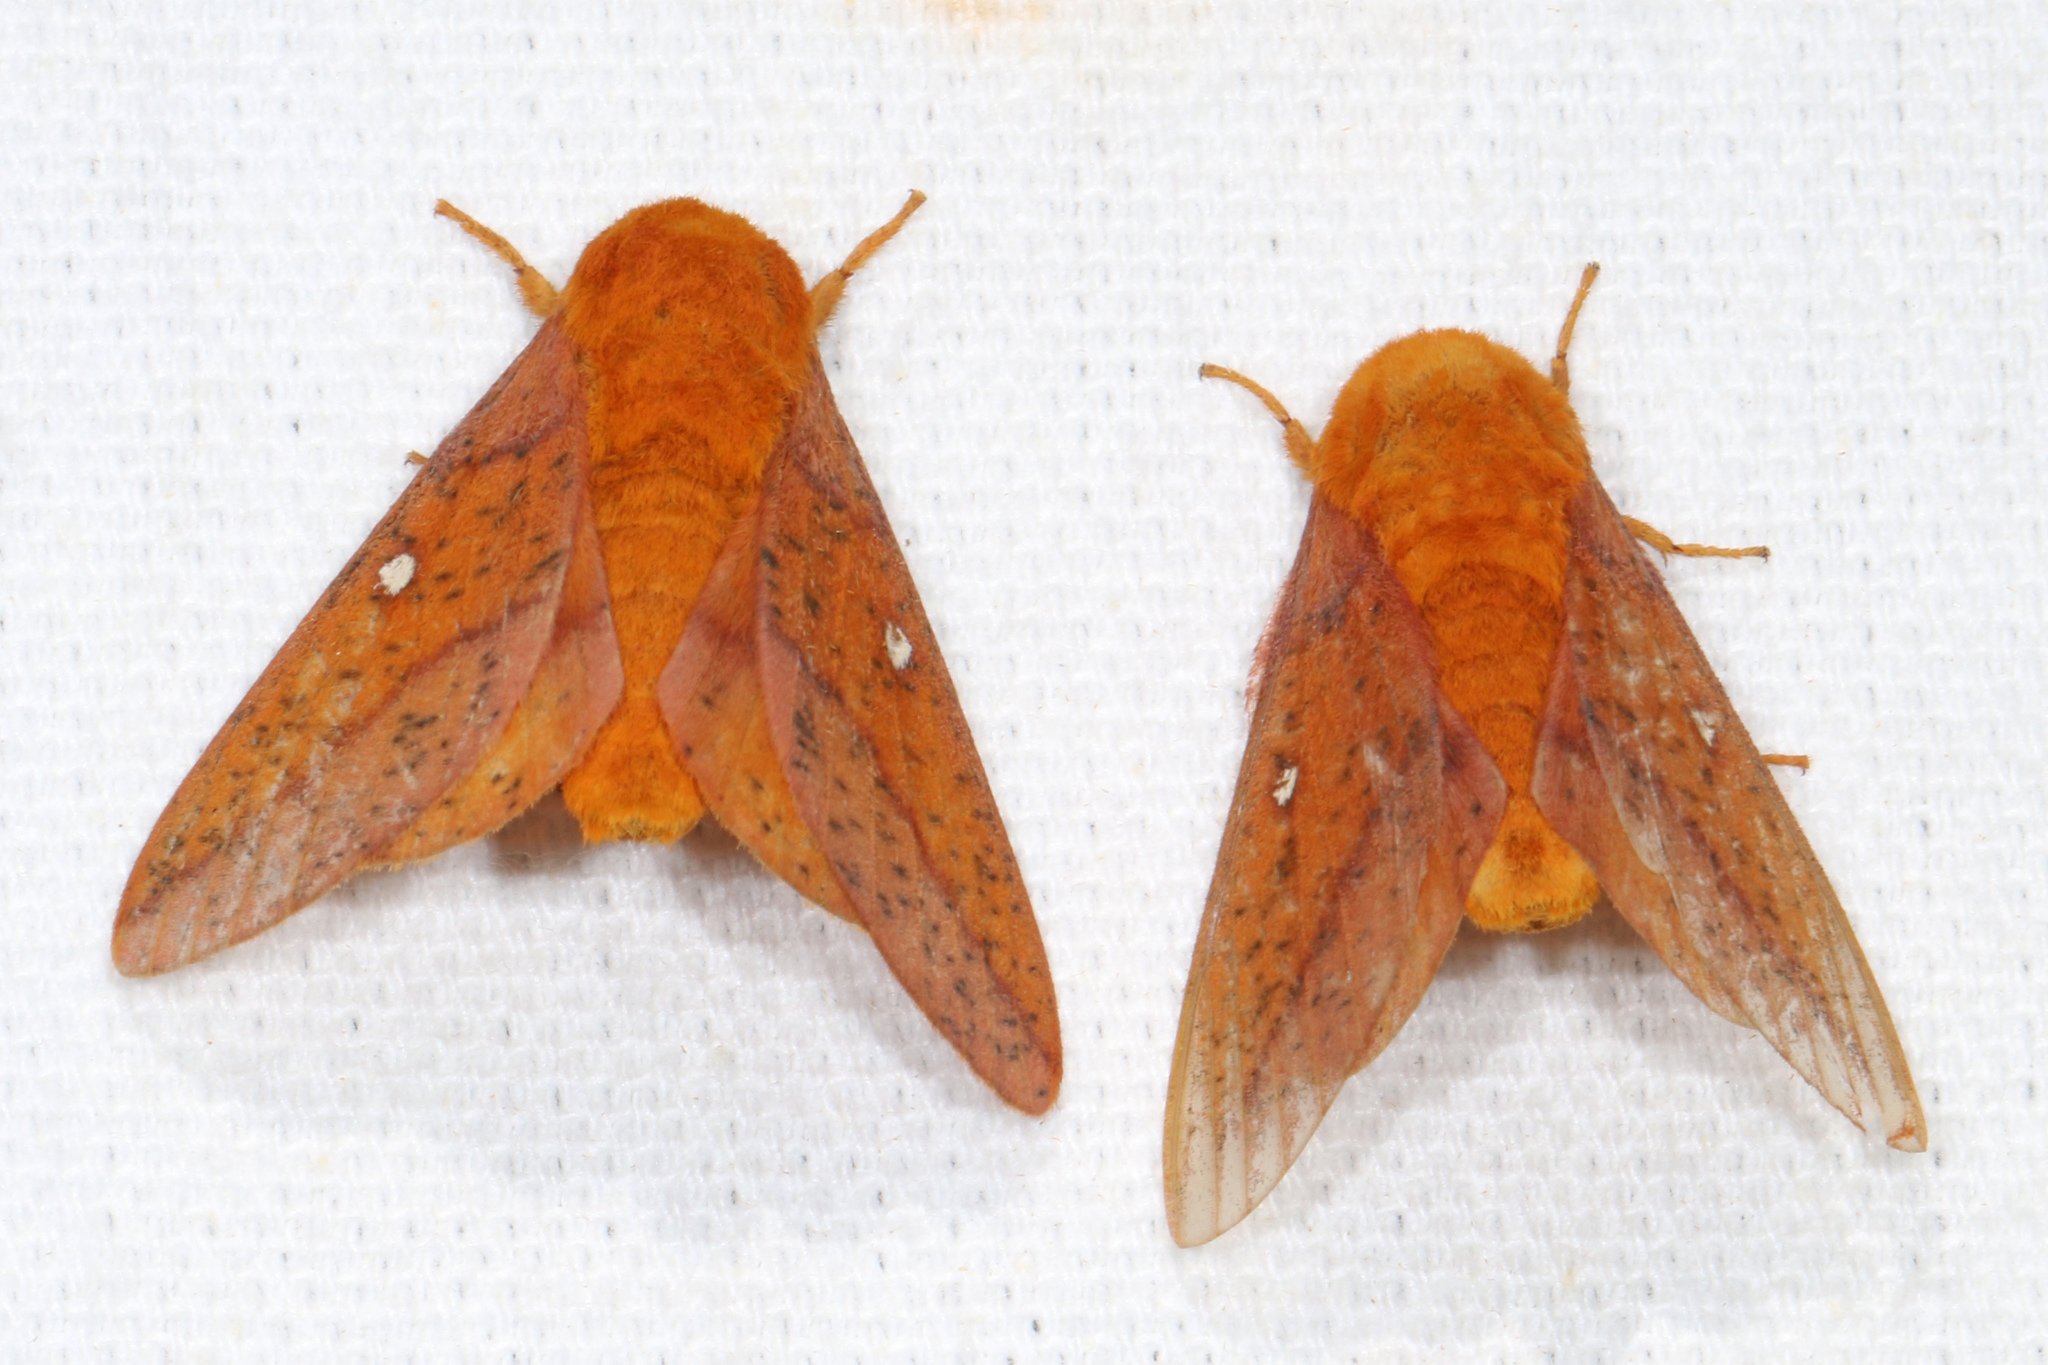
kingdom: Animalia
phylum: Arthropoda
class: Insecta
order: Lepidoptera
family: Saturniidae
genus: Anisota
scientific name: Anisota stigma
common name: Spiny oakworm moth
